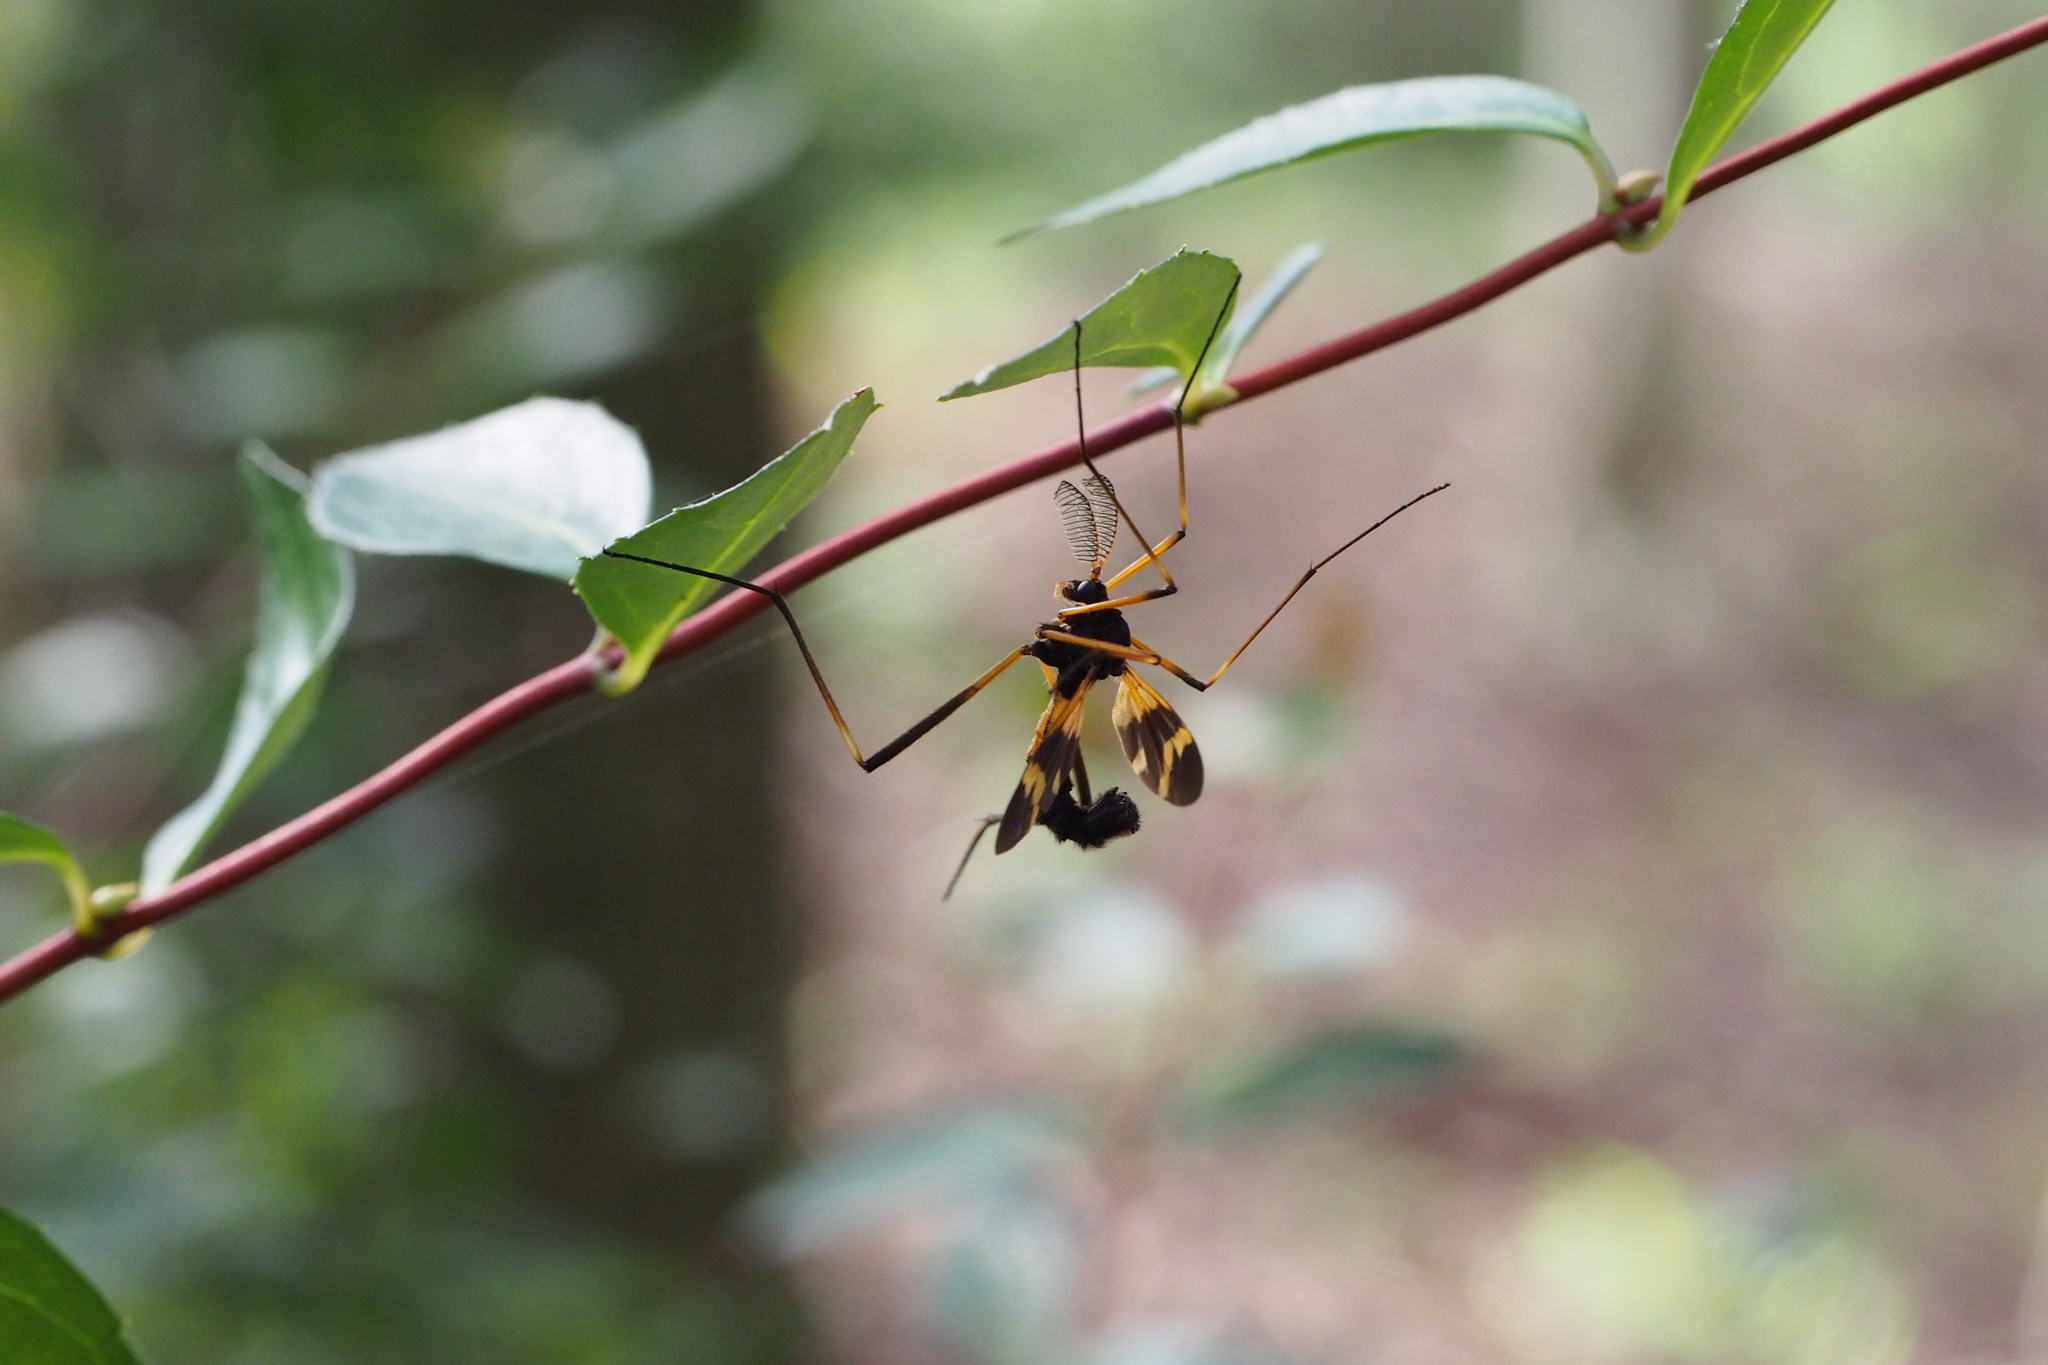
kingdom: Animalia
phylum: Arthropoda
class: Insecta
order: Diptera
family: Tipulidae
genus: Pselliophora
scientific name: Pselliophora bifascipennis
